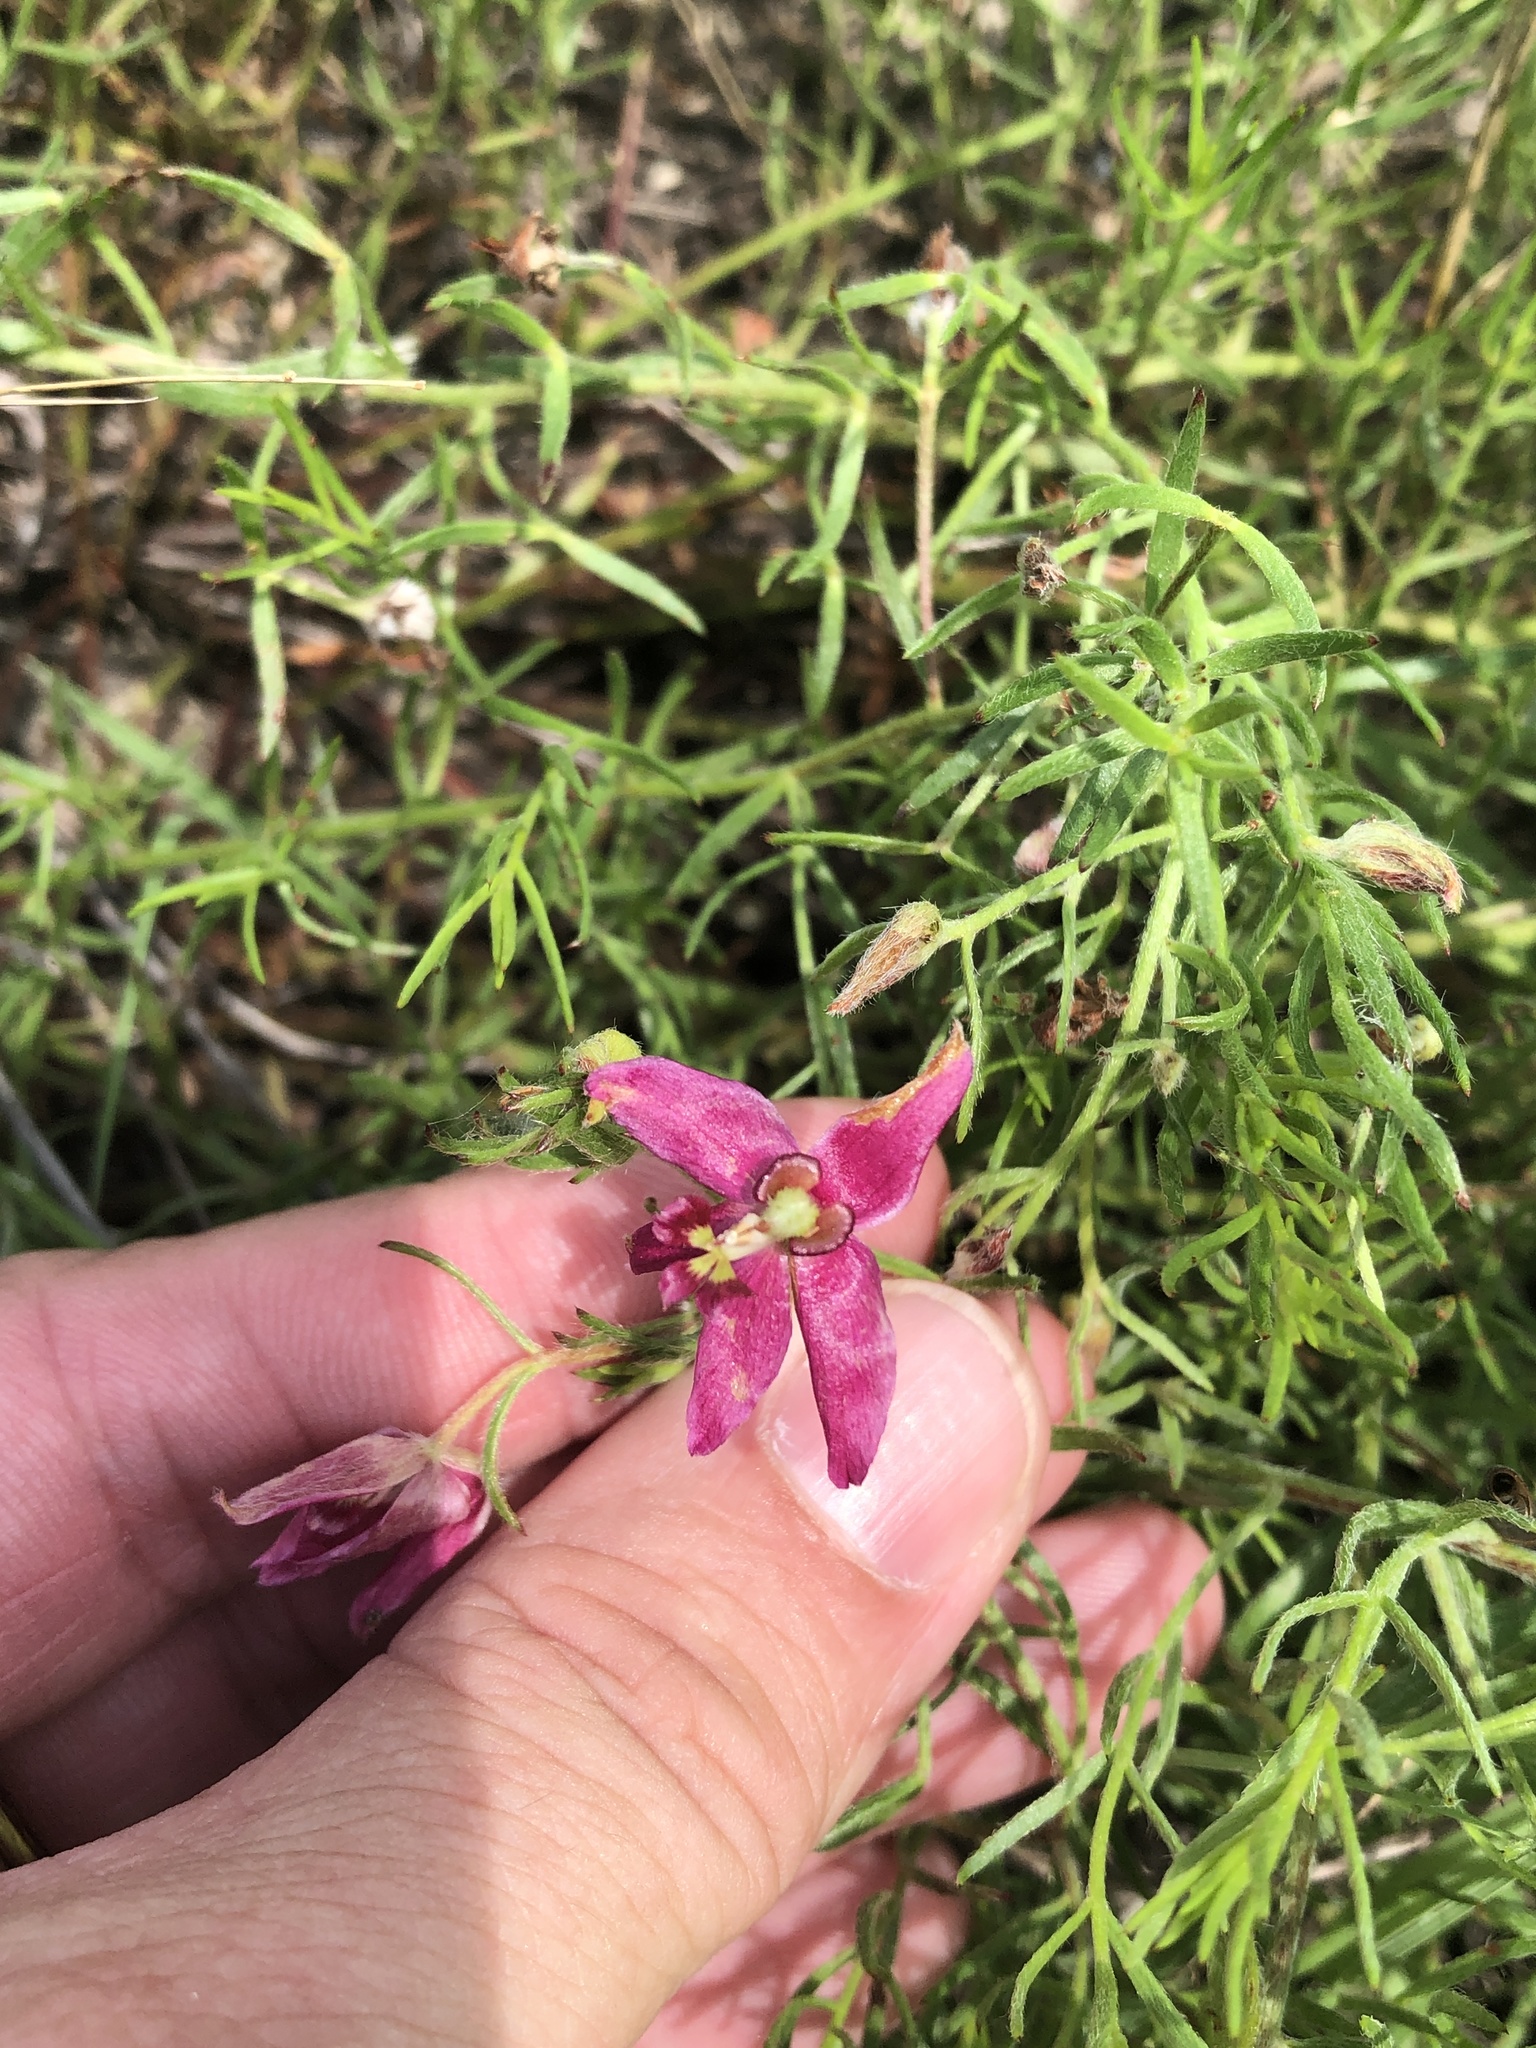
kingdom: Plantae
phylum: Tracheophyta
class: Magnoliopsida
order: Zygophyllales
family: Krameriaceae
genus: Krameria
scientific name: Krameria lanceolata
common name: Ratany
